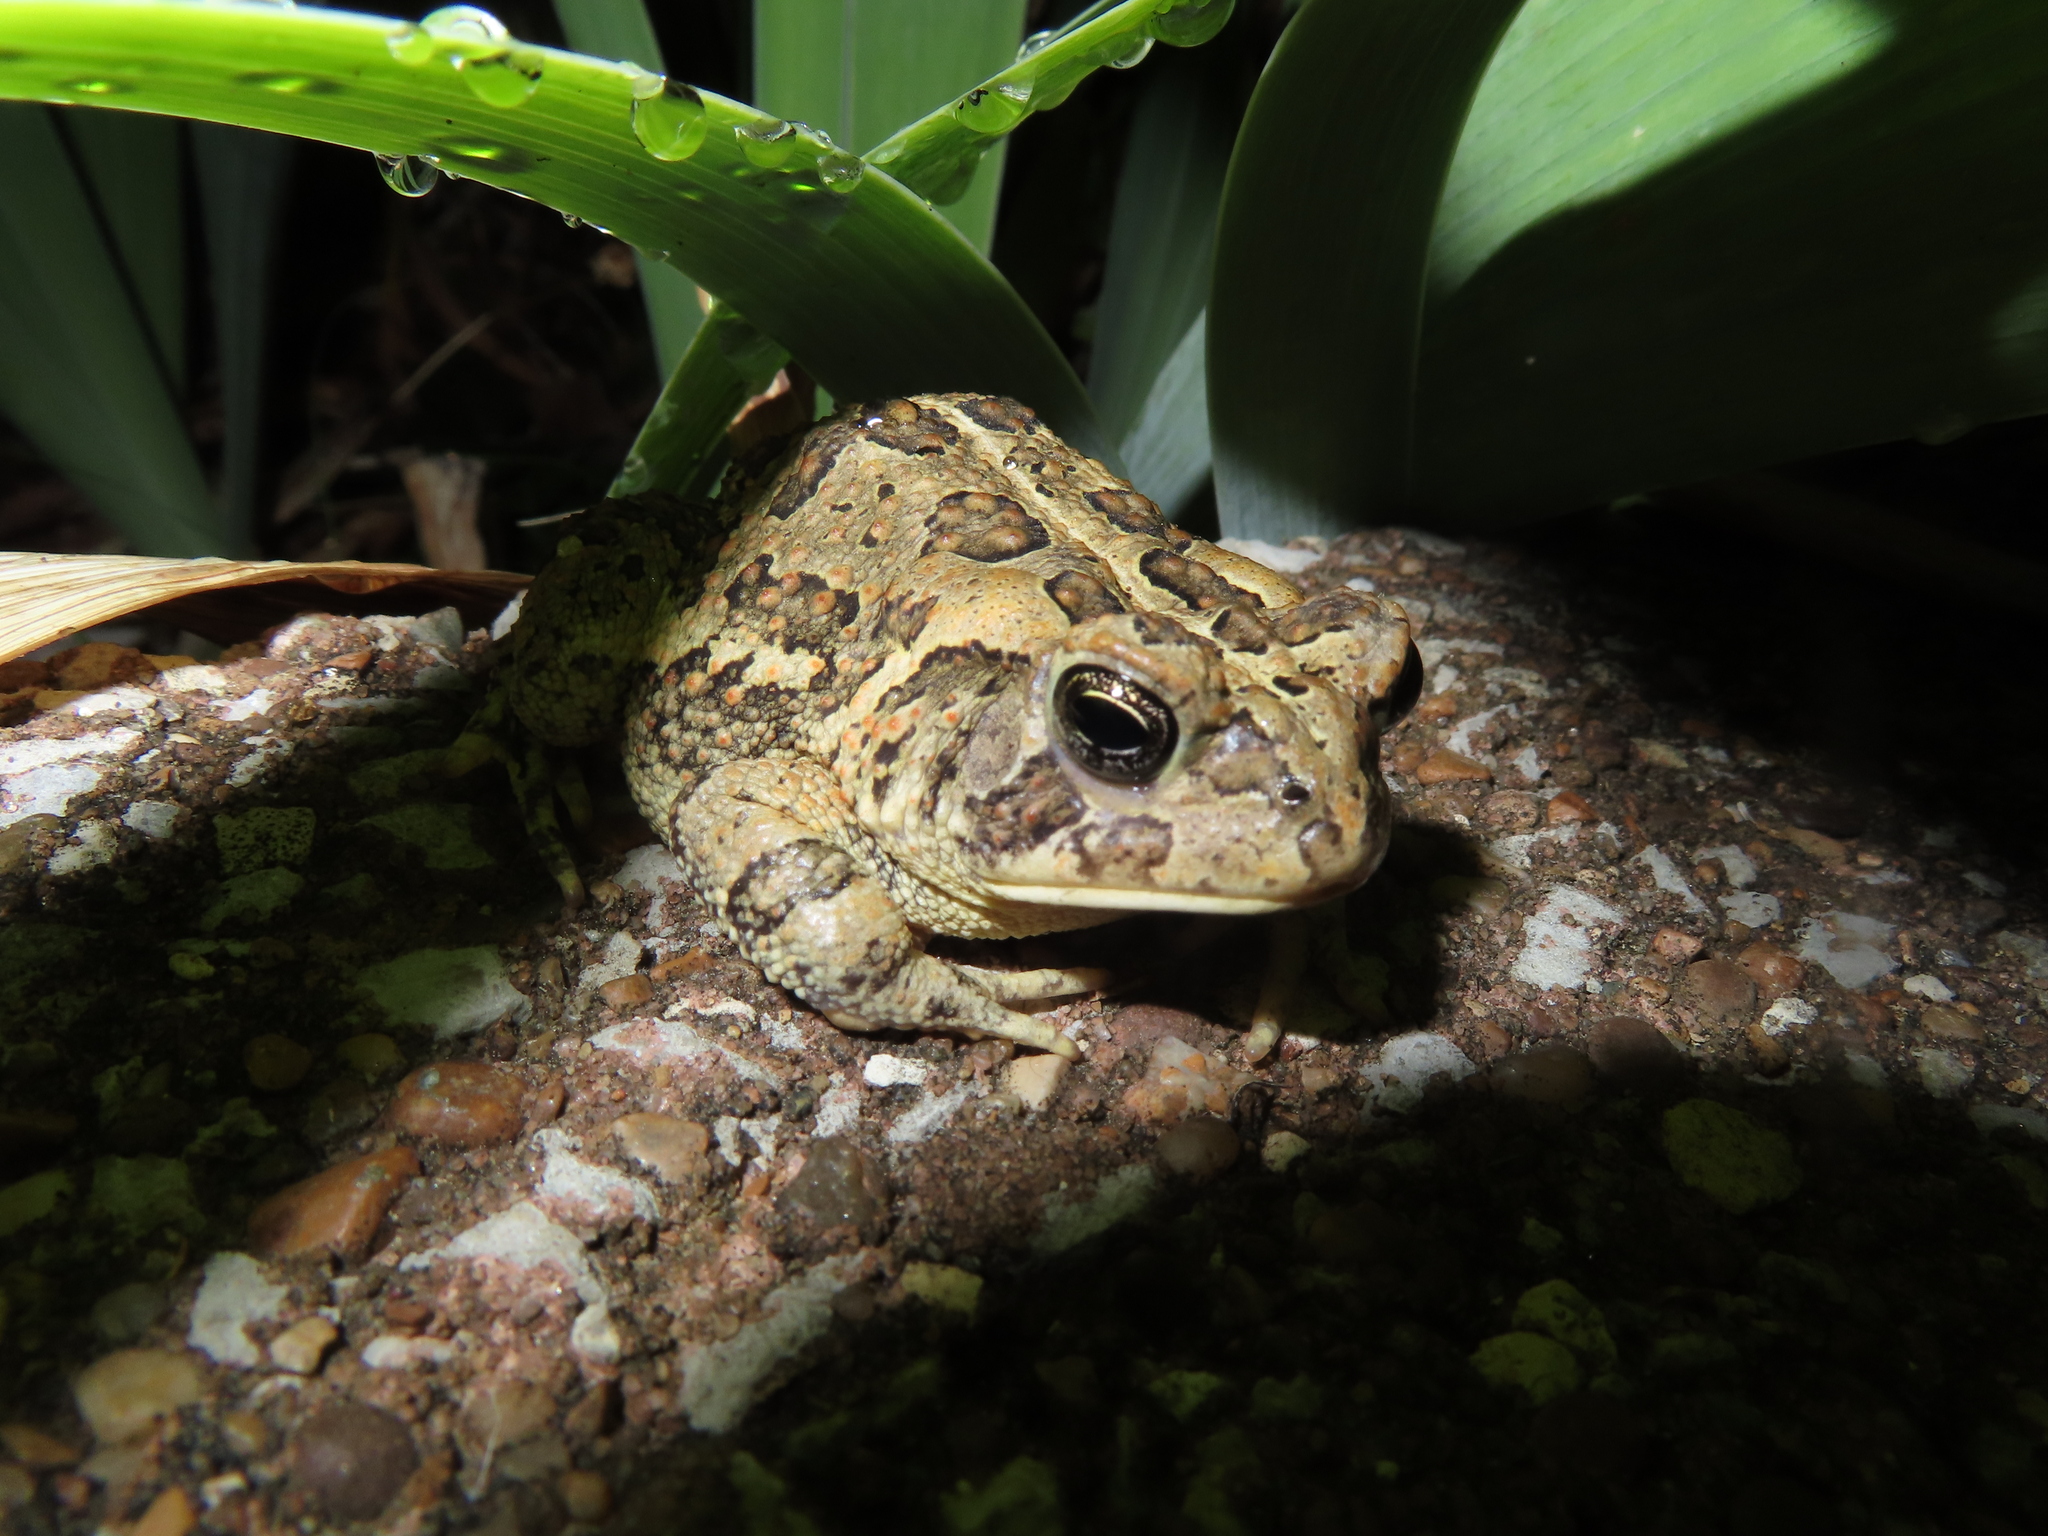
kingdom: Animalia
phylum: Chordata
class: Amphibia
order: Anura
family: Bufonidae
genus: Anaxyrus
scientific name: Anaxyrus fowleri
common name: Fowler's toad
